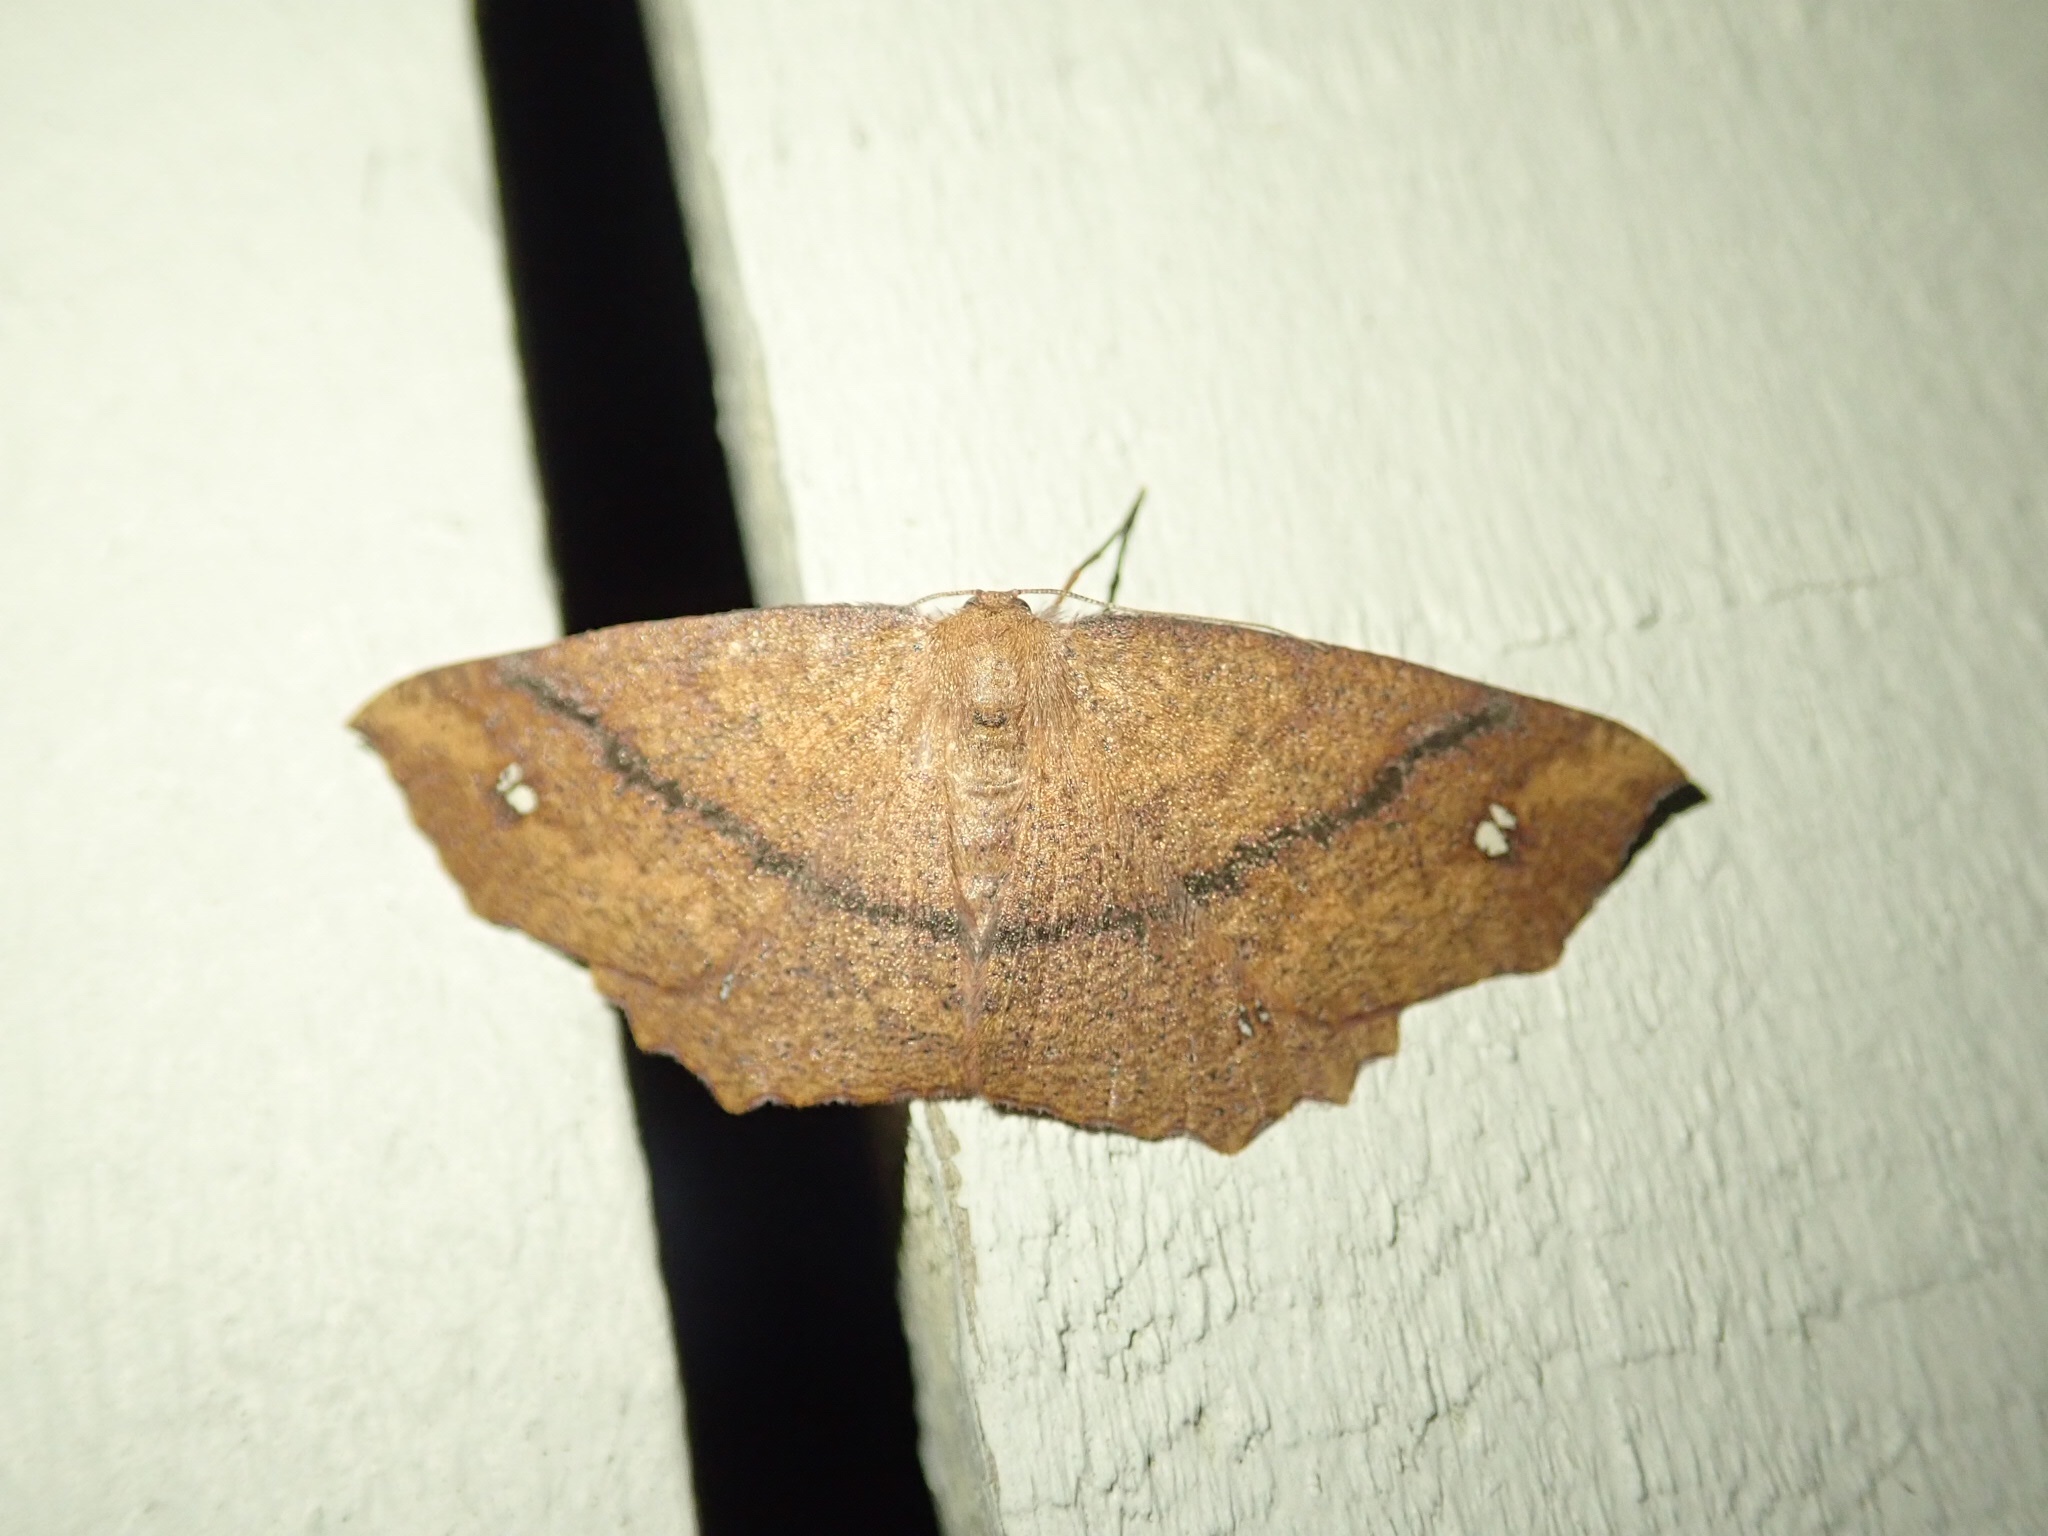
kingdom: Animalia
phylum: Arthropoda
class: Insecta
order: Lepidoptera
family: Geometridae
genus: Xyridacma
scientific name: Xyridacma ustaria
